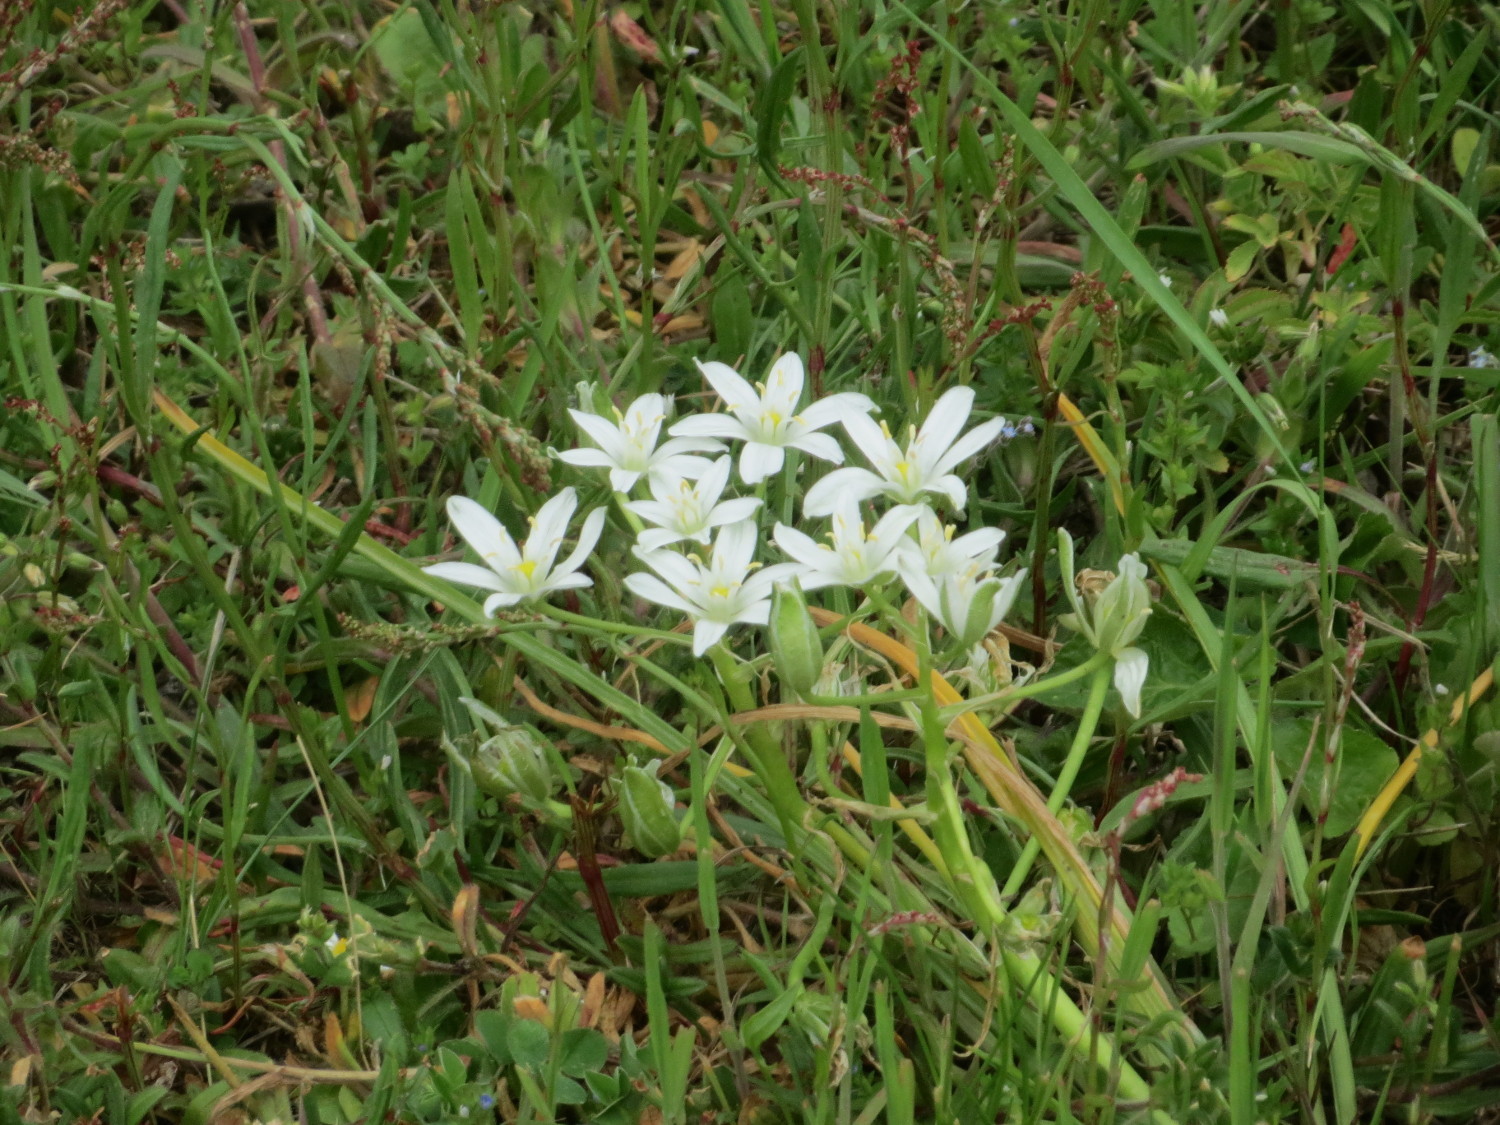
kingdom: Plantae
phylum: Tracheophyta
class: Liliopsida
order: Asparagales
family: Asparagaceae
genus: Ornithogalum
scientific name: Ornithogalum umbellatum
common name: Garden star-of-bethlehem
